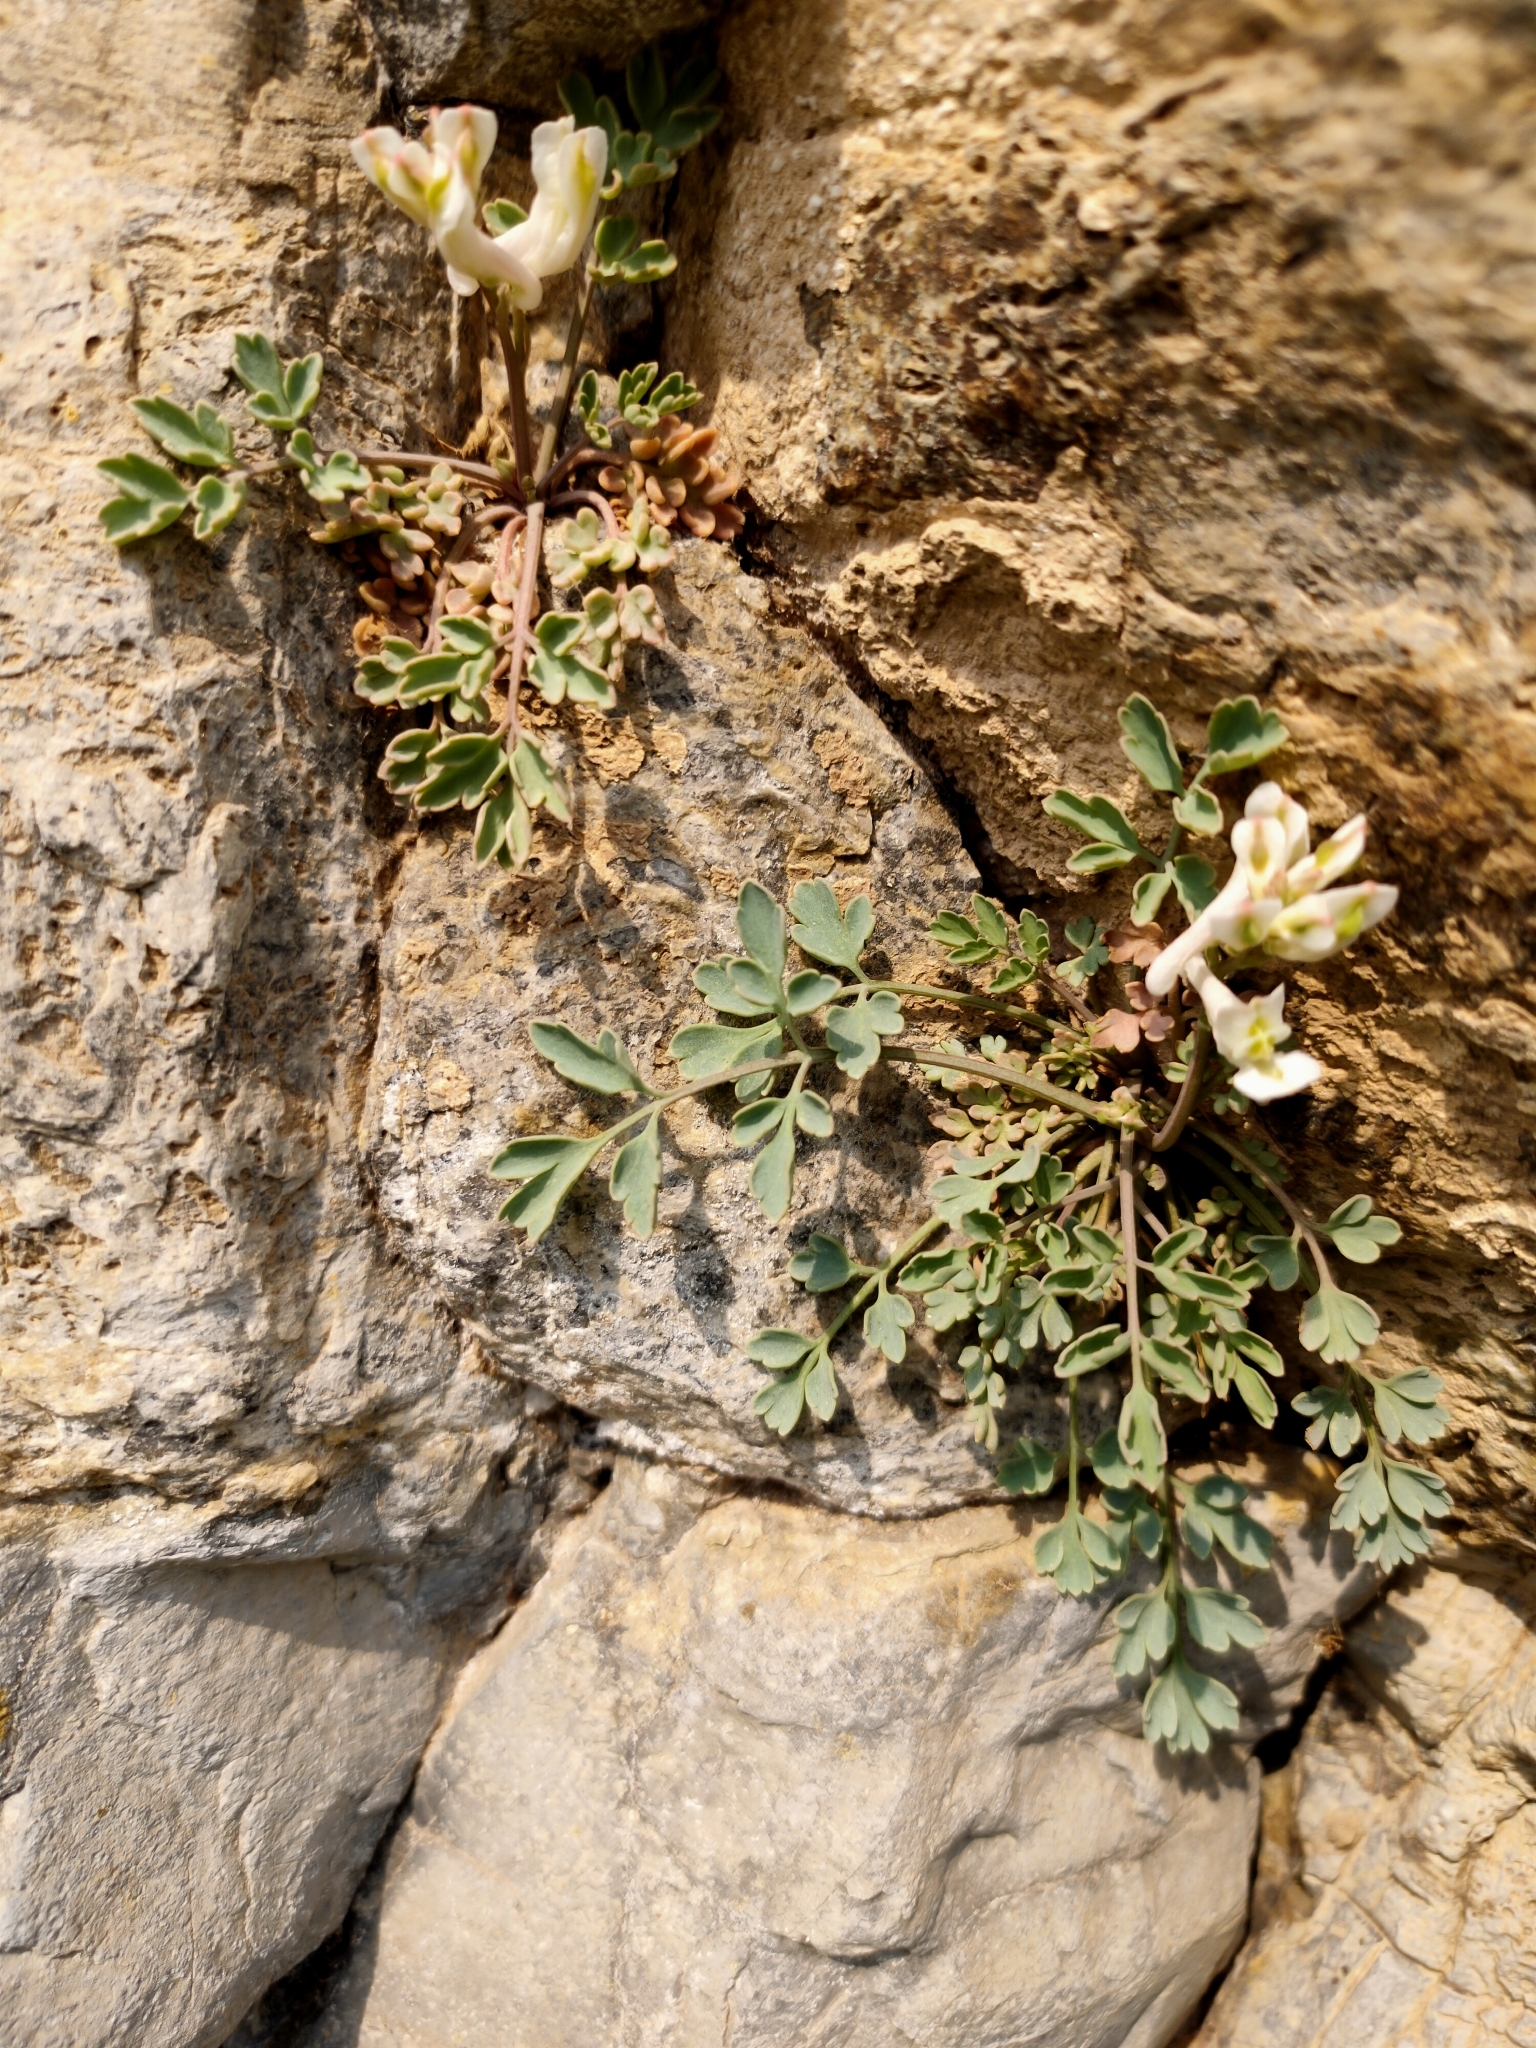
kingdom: Plantae
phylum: Tracheophyta
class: Magnoliopsida
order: Ranunculales
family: Papaveraceae
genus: Corydalis
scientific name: Corydalis fangshanensis
